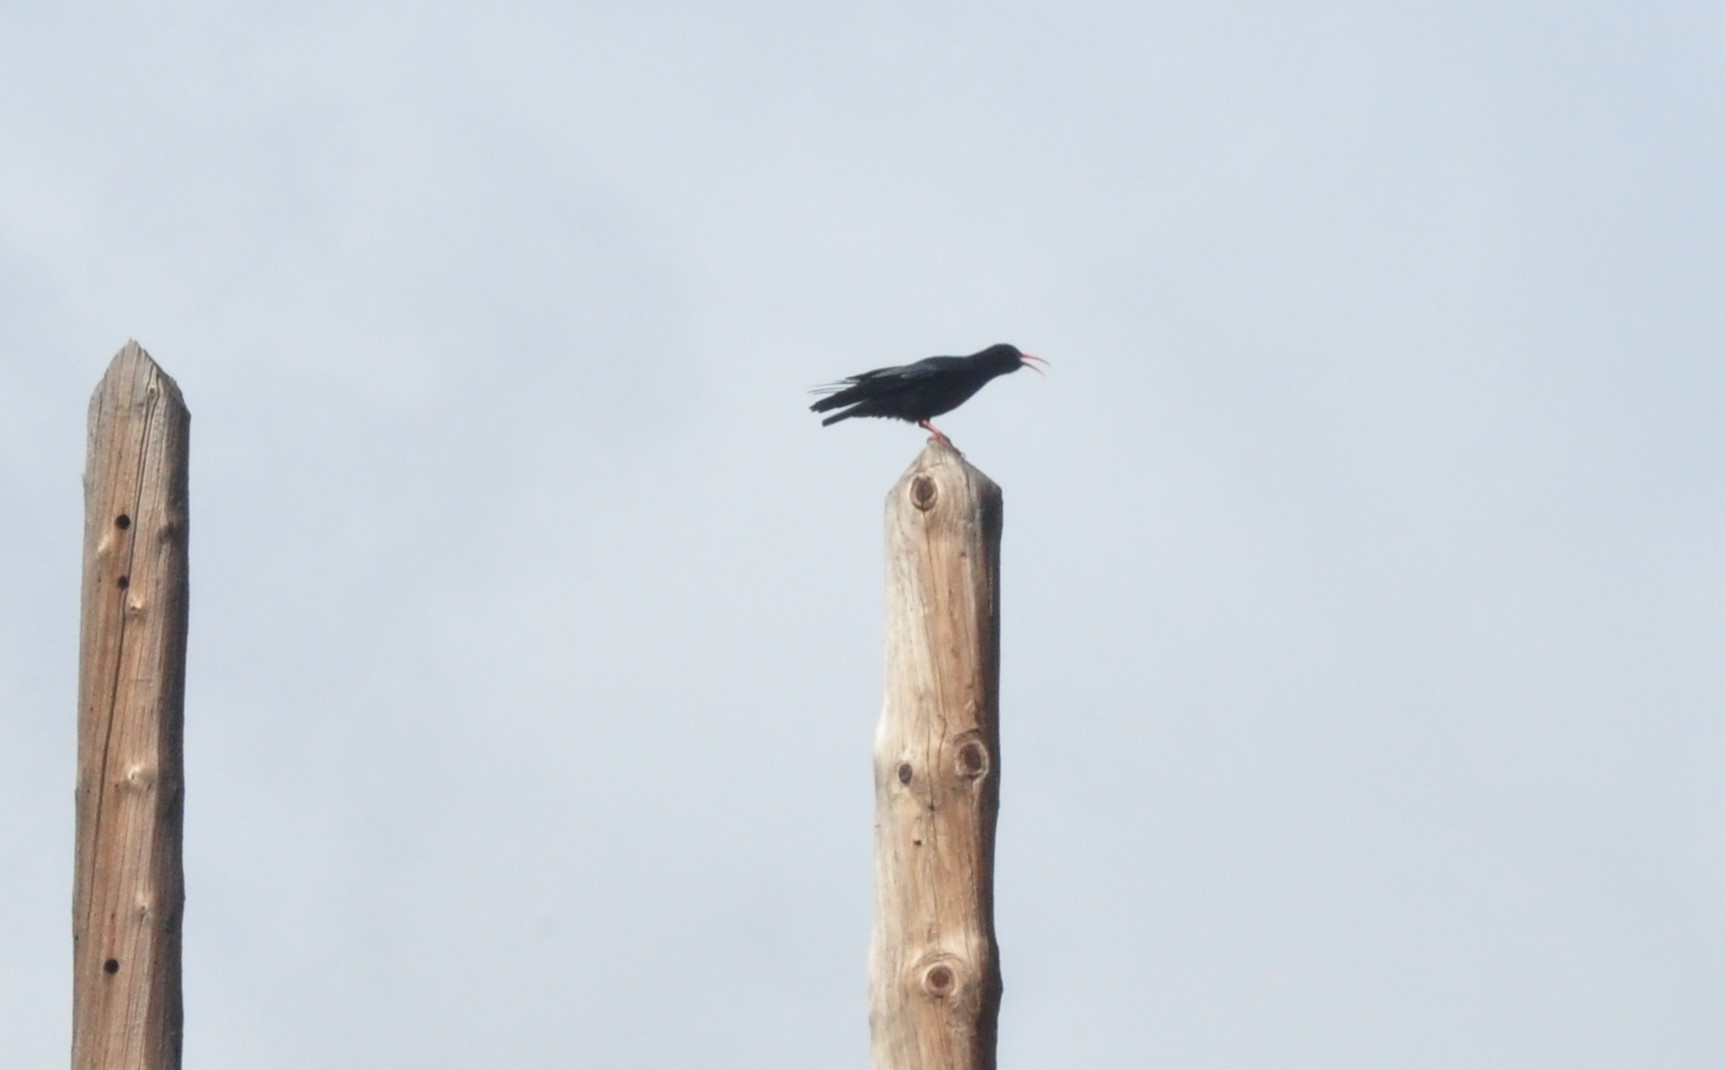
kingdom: Animalia
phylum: Chordata
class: Aves
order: Passeriformes
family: Corvidae
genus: Pyrrhocorax
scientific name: Pyrrhocorax pyrrhocorax
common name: Red-billed chough
